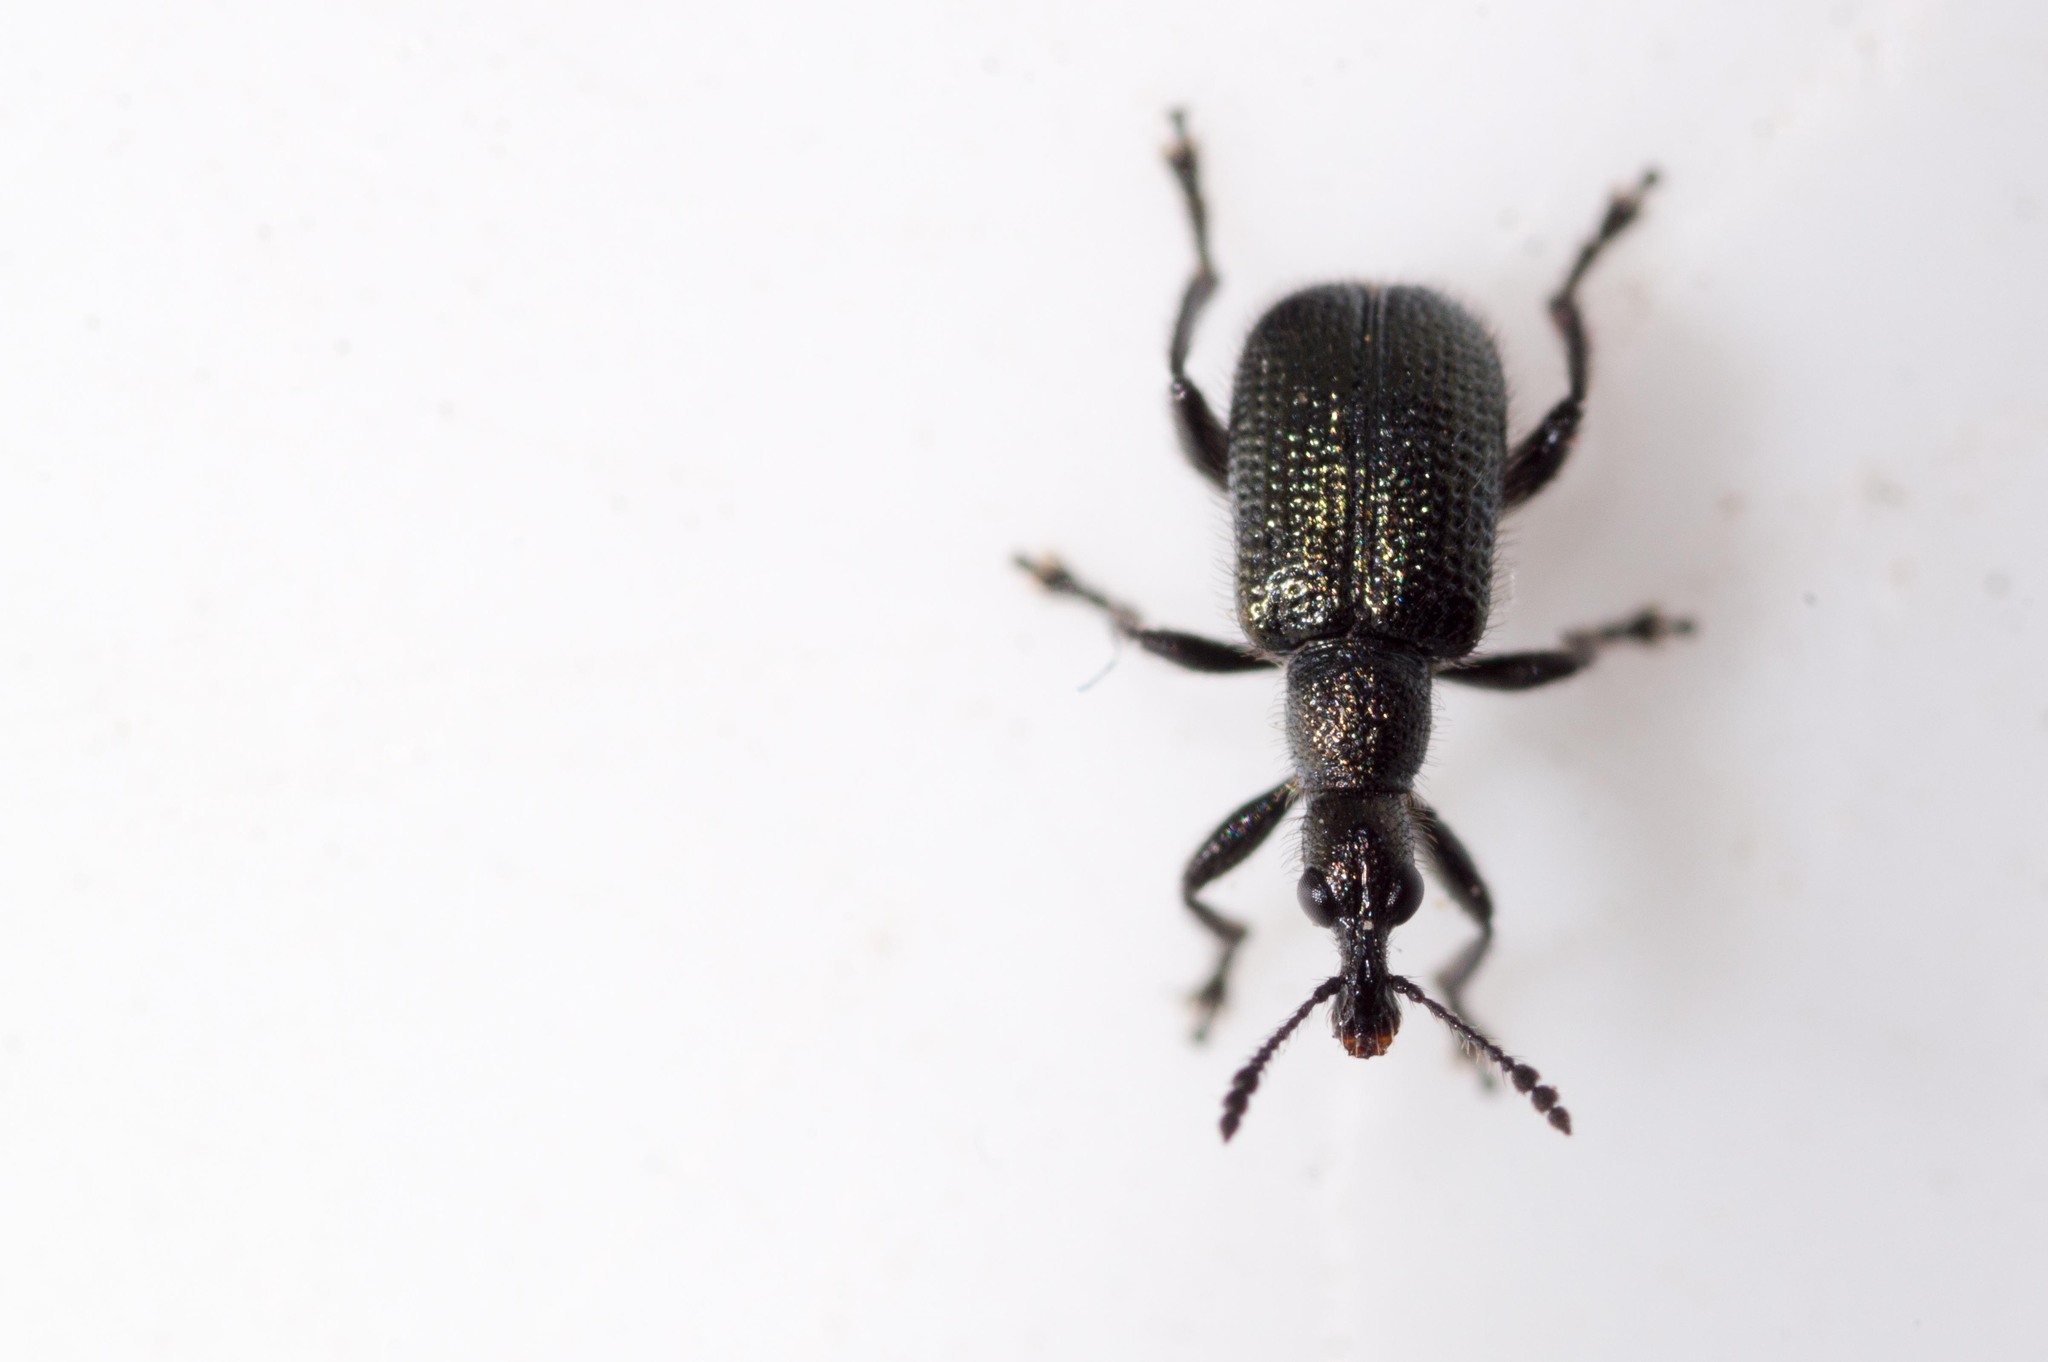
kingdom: Animalia
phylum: Arthropoda
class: Insecta
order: Coleoptera
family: Attelabidae
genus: Deporaus
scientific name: Deporaus glastinus
